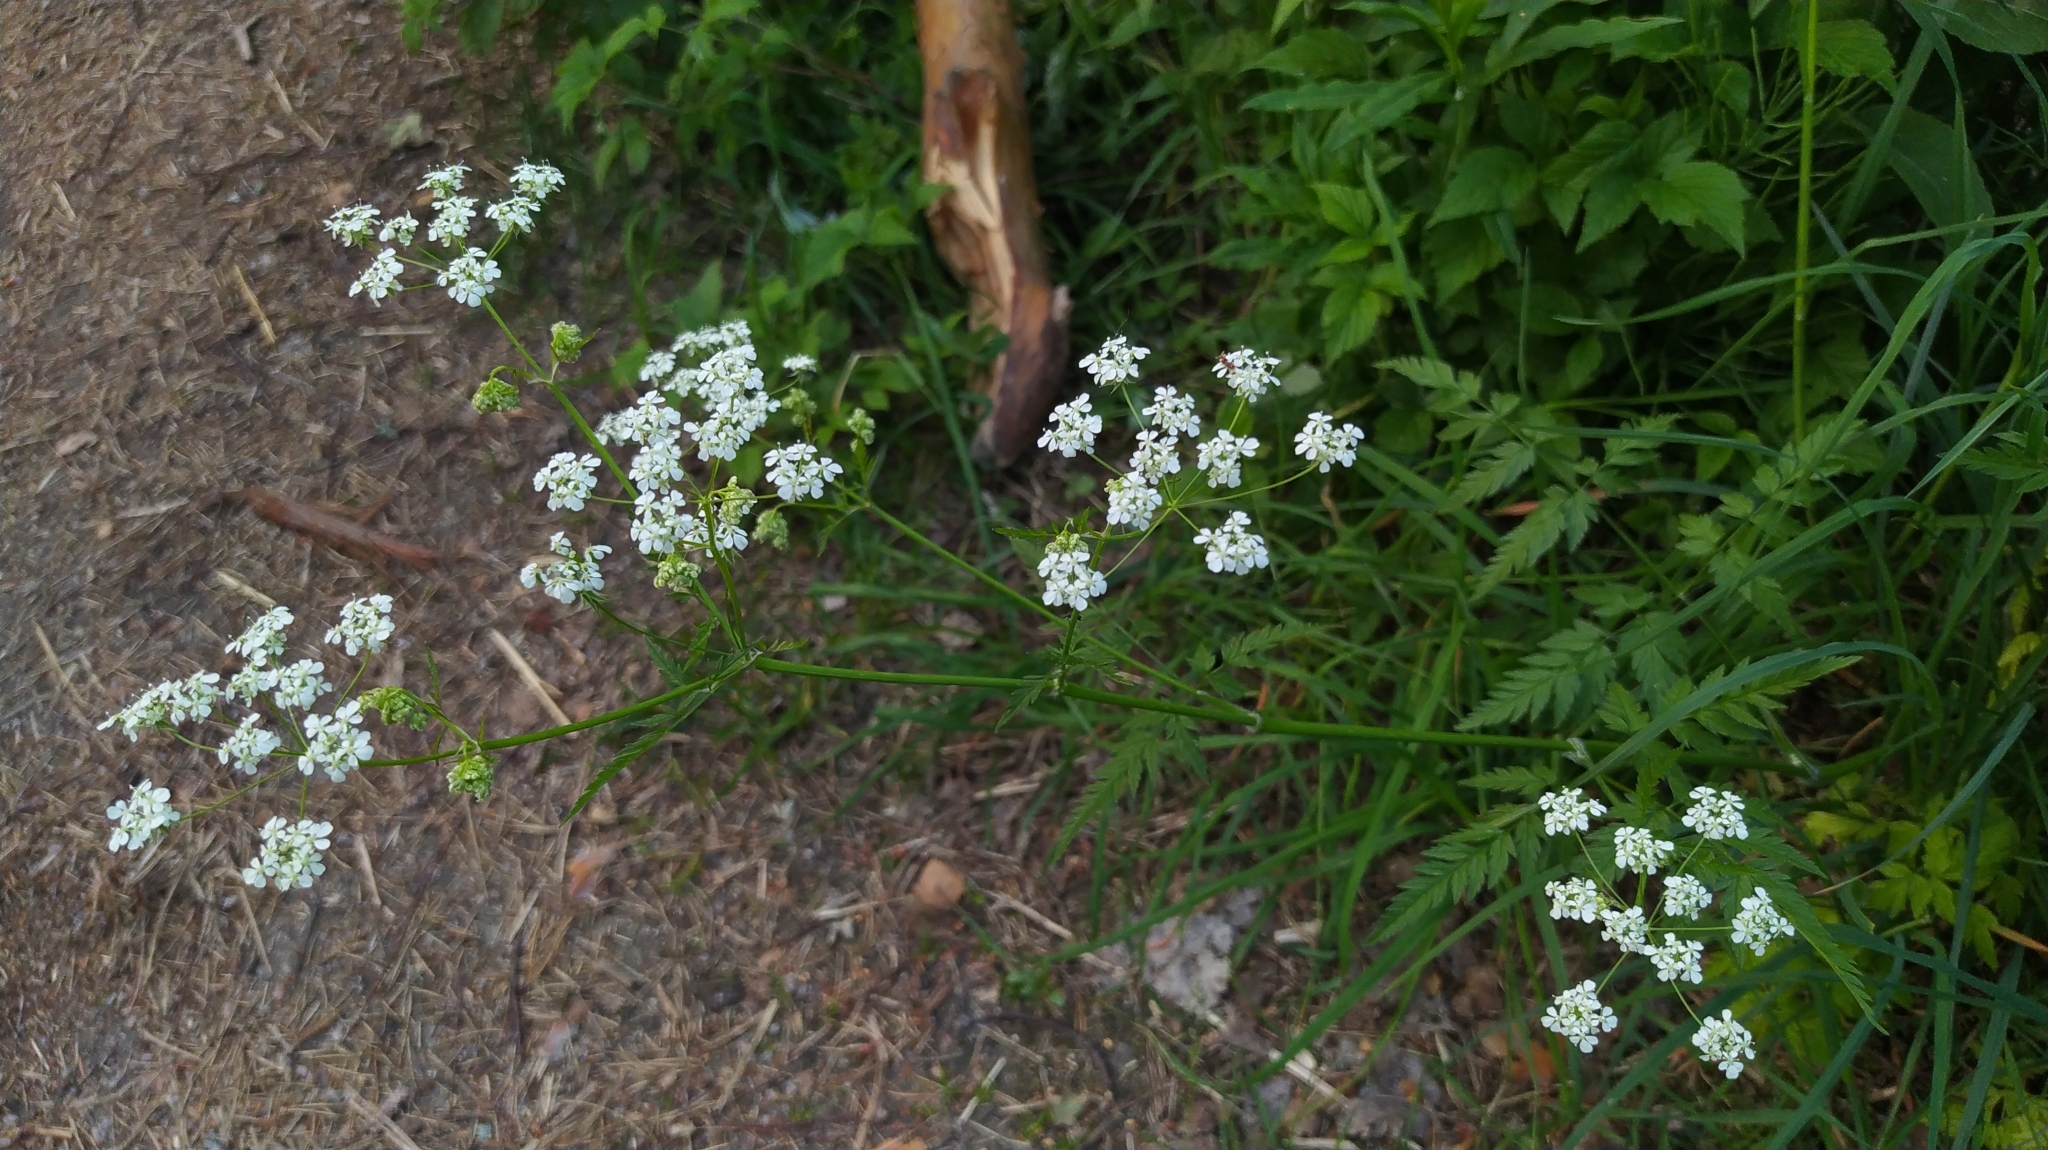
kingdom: Plantae
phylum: Tracheophyta
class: Magnoliopsida
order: Apiales
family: Apiaceae
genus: Anthriscus
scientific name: Anthriscus sylvestris
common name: Cow parsley
